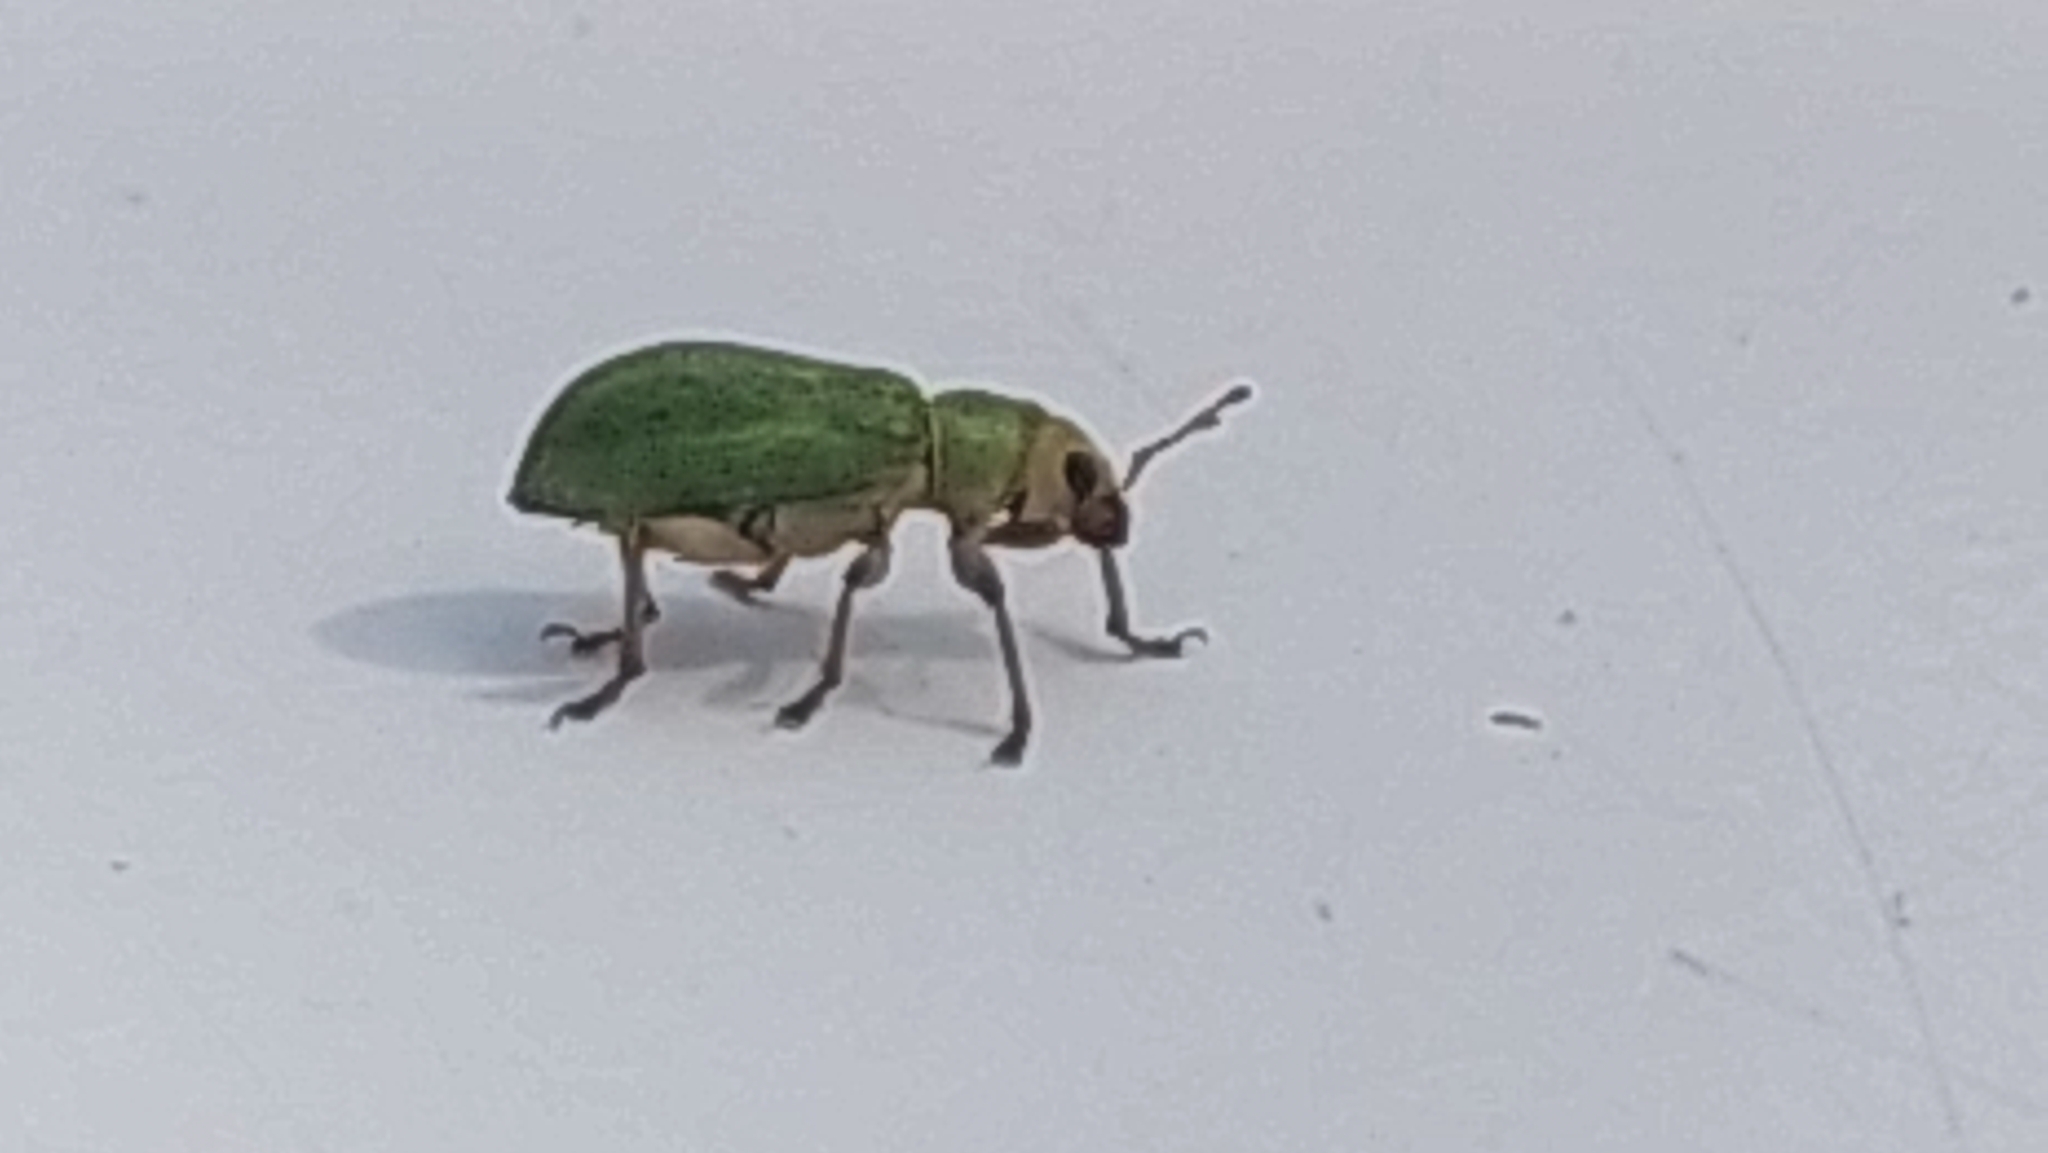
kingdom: Animalia
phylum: Arthropoda
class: Insecta
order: Coleoptera
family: Curculionidae
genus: Pachyrhinus
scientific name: Pachyrhinus lethierryi
